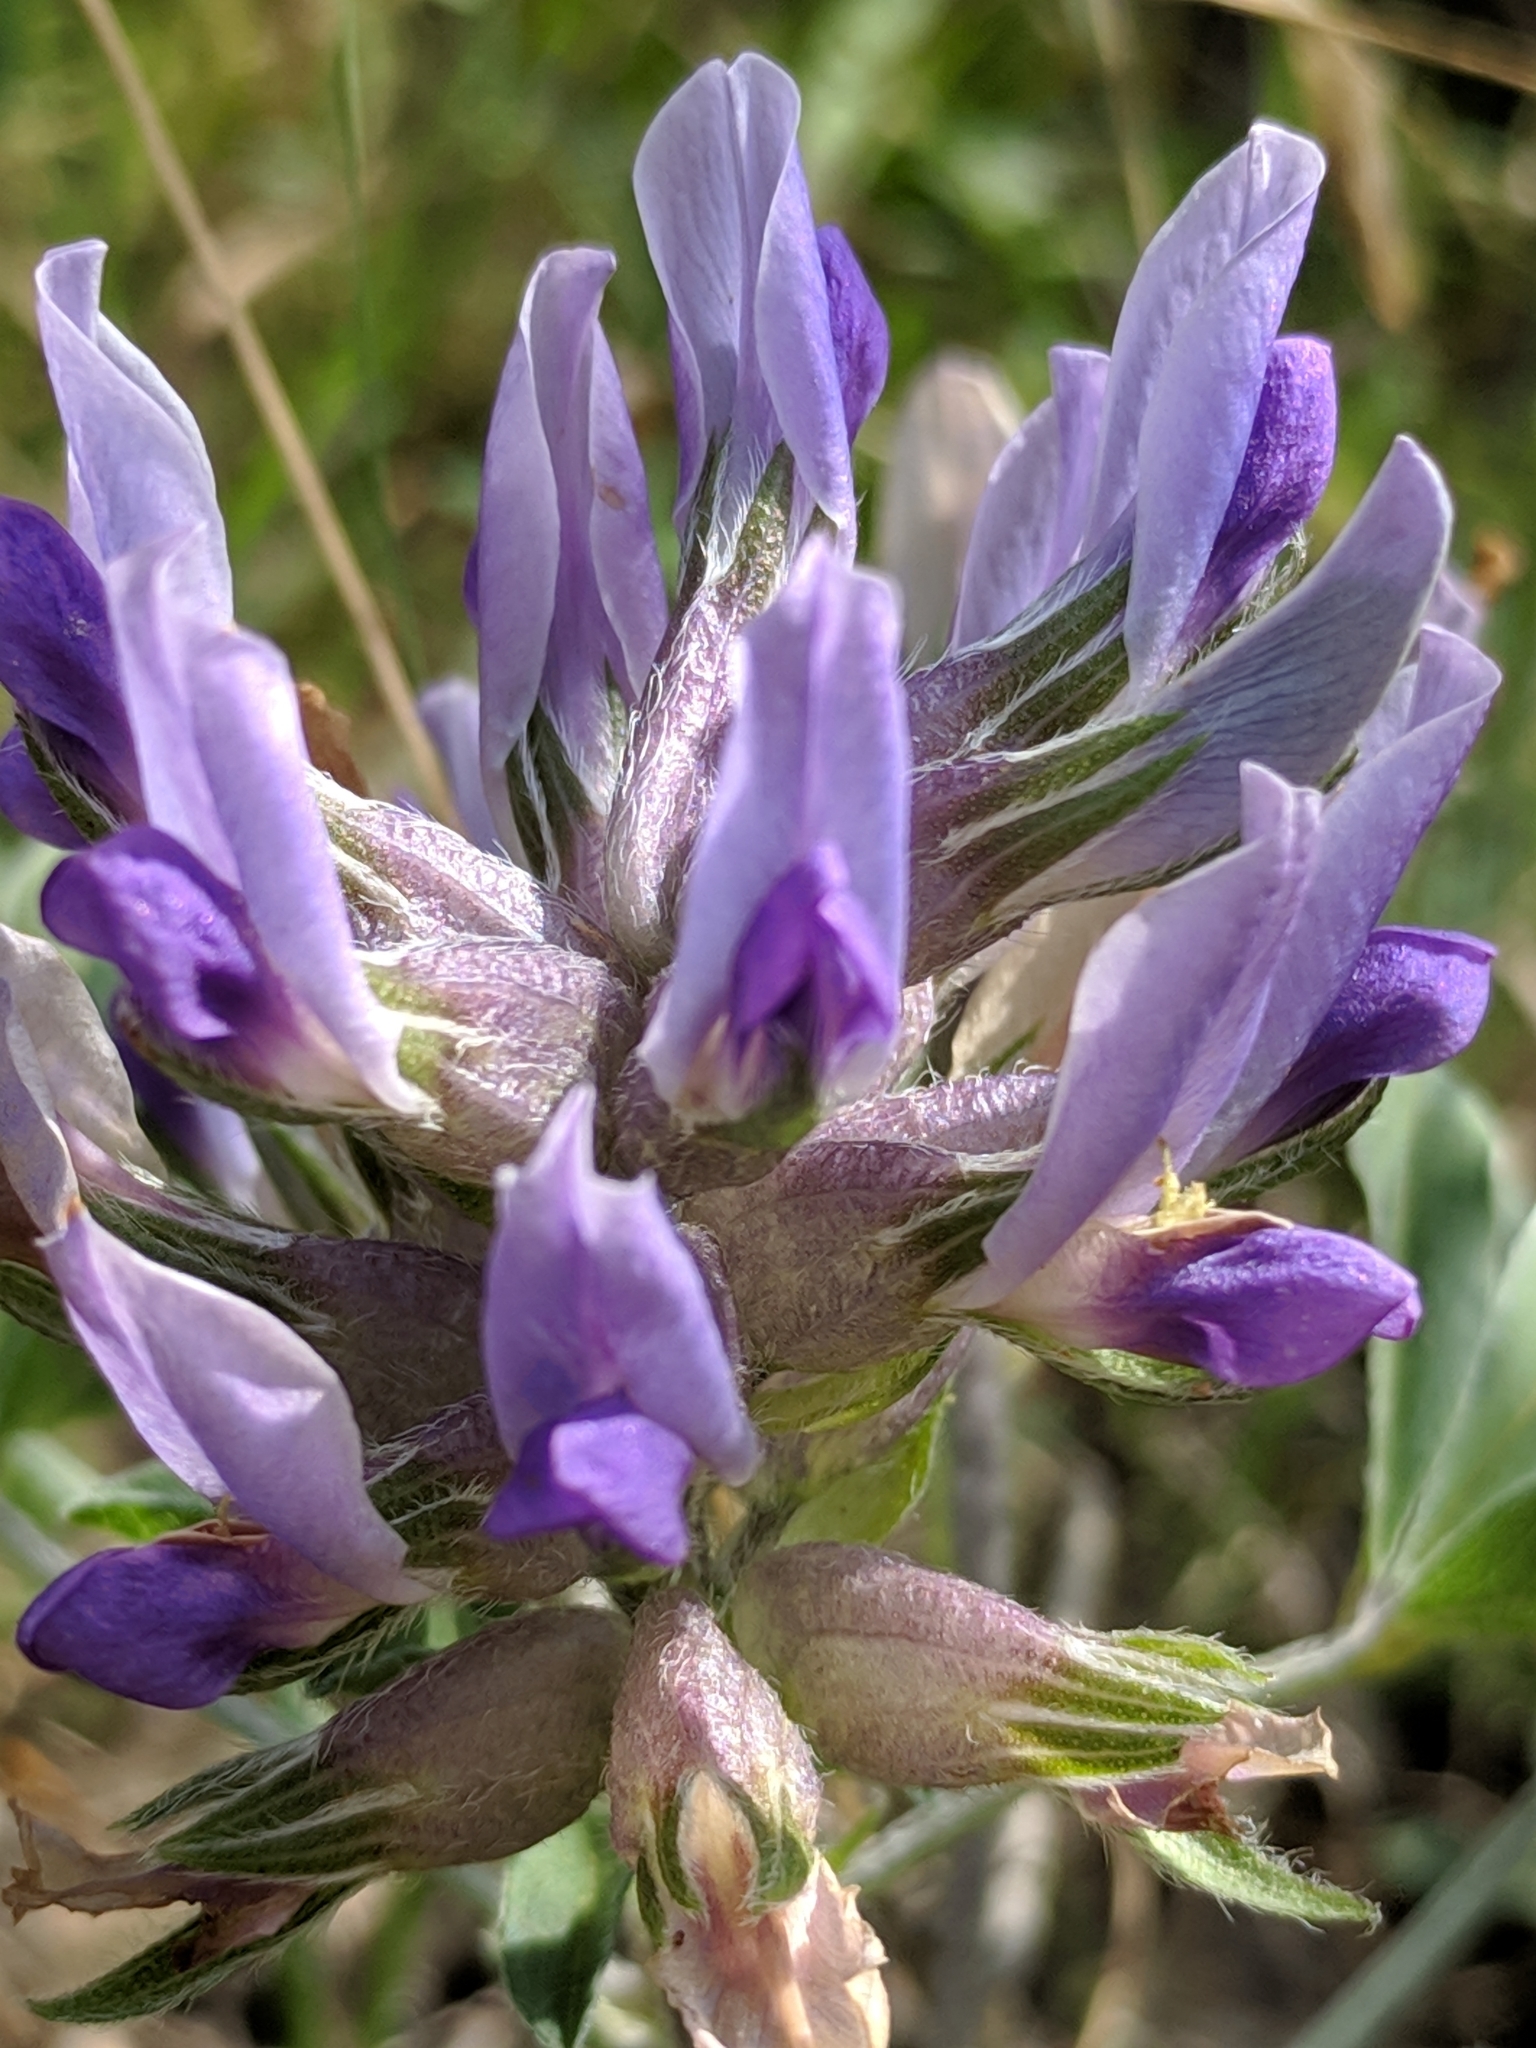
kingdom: Plantae
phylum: Tracheophyta
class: Magnoliopsida
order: Fabales
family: Fabaceae
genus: Pediomelum
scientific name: Pediomelum latestipulatum
